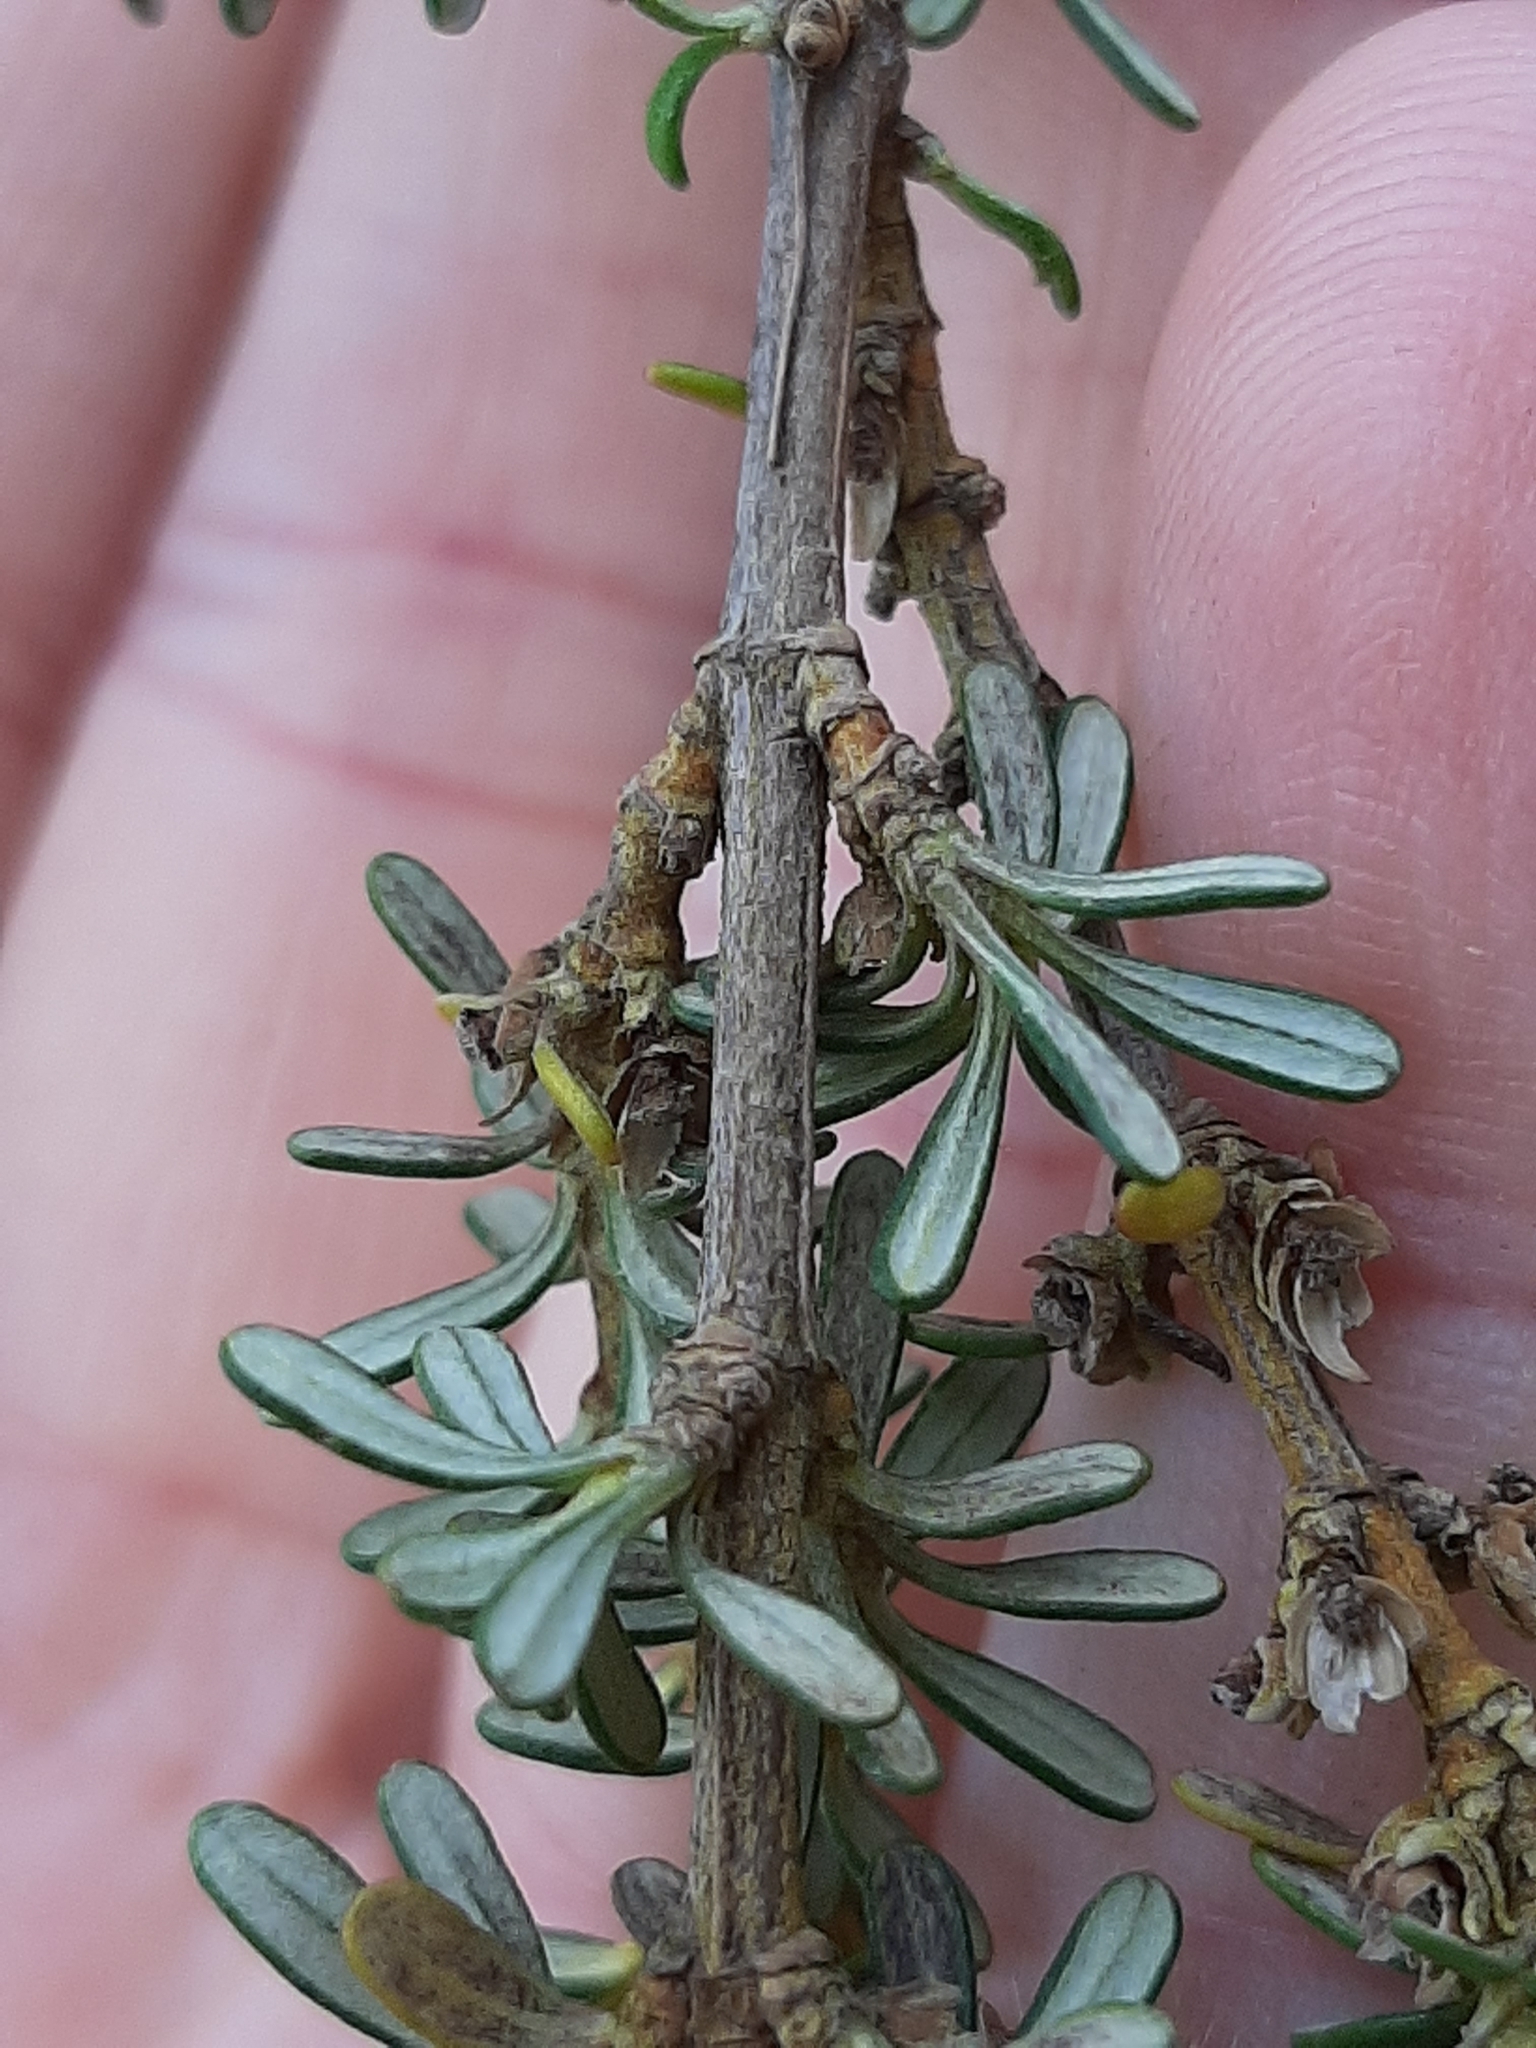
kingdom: Plantae
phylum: Tracheophyta
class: Magnoliopsida
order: Asterales
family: Asteraceae
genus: Olearia
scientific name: Olearia solandri
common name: Coastal daisybush
